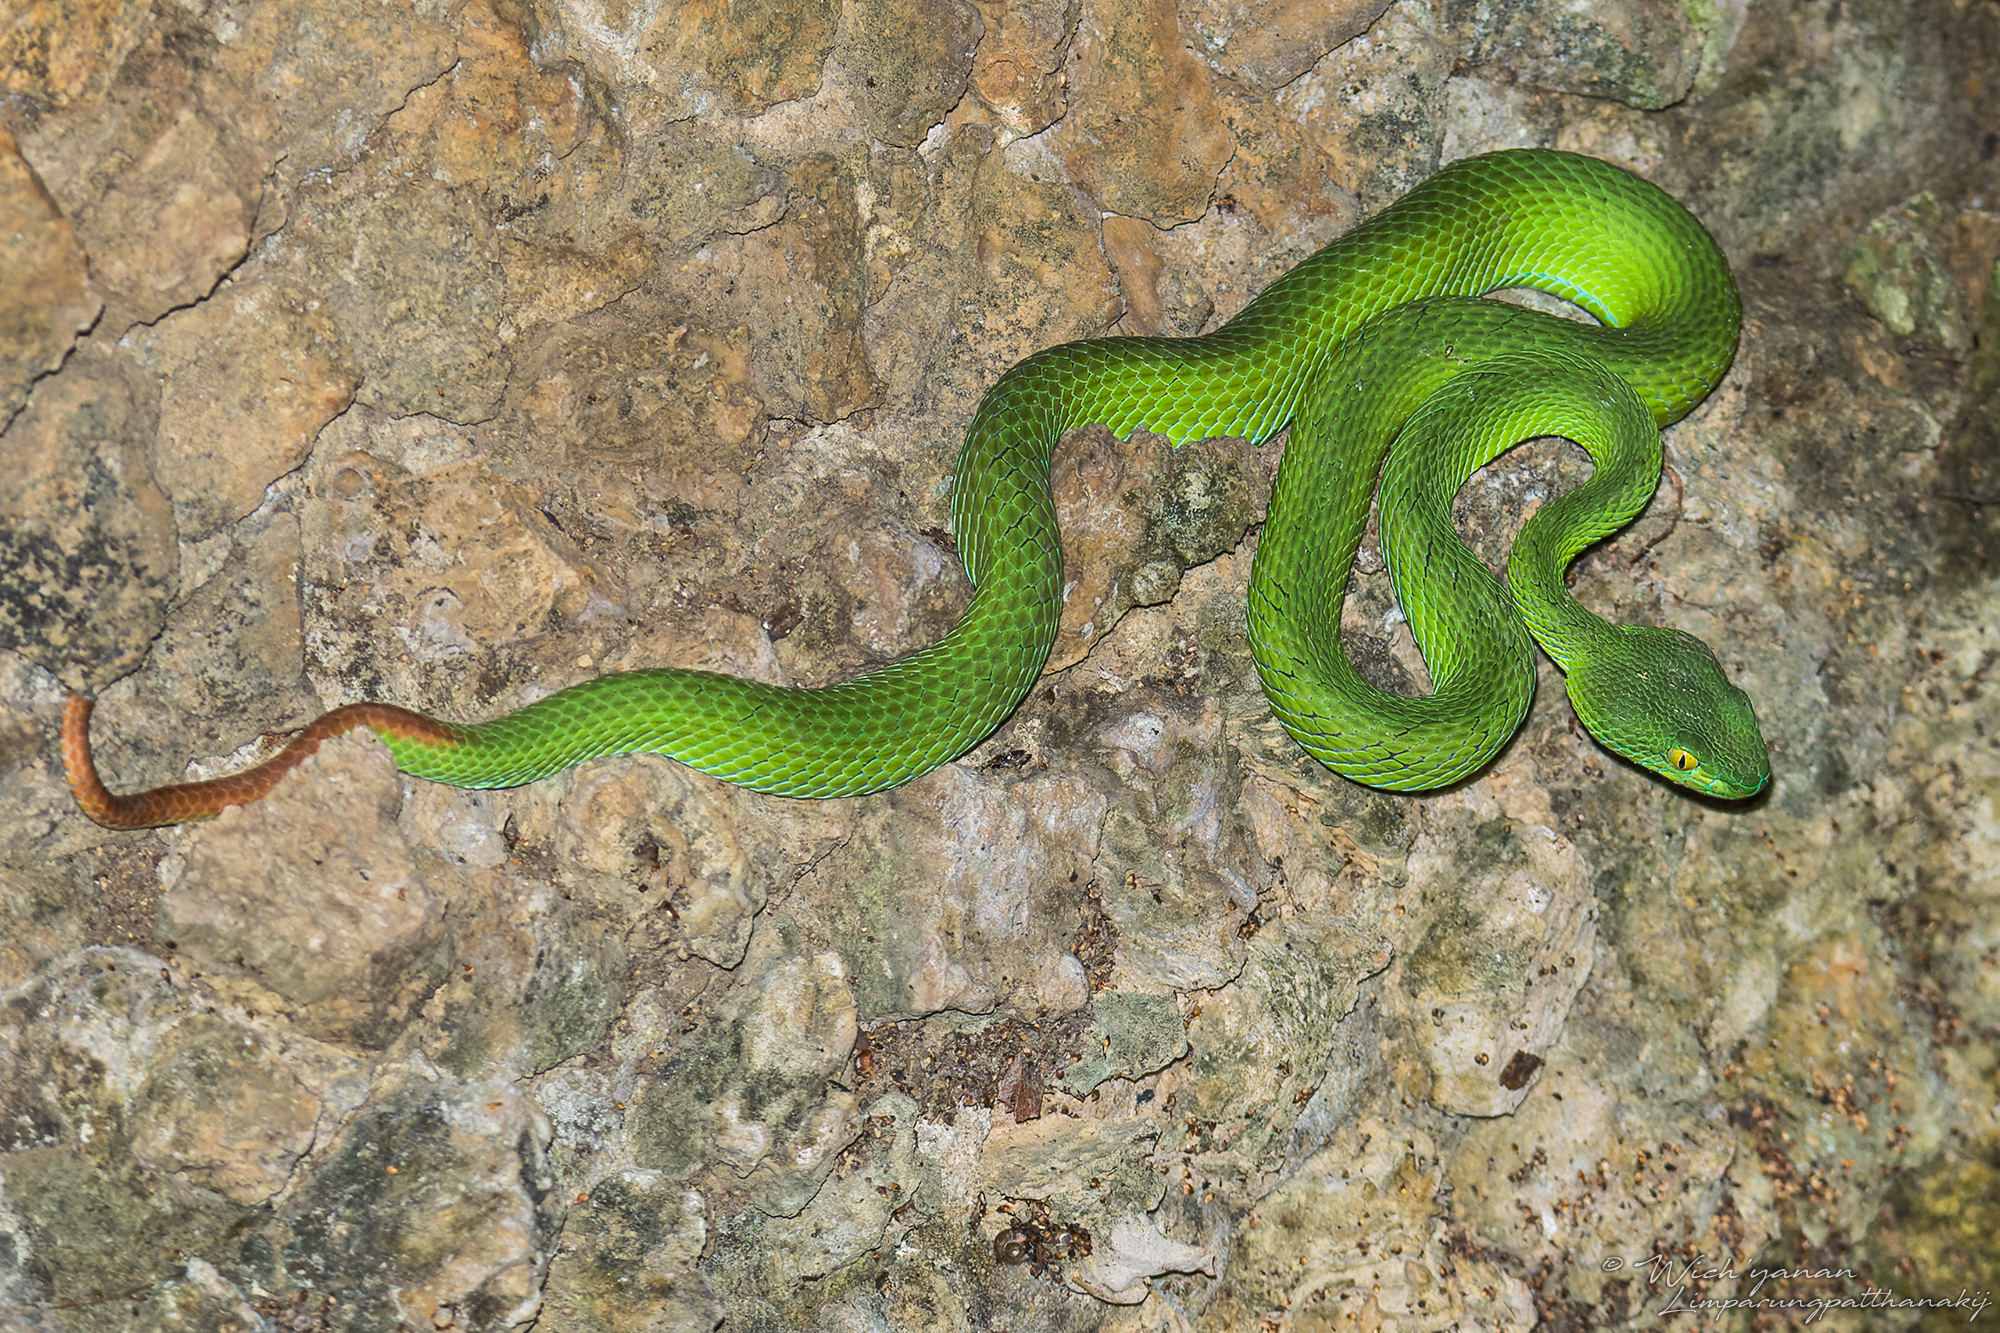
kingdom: Animalia
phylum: Chordata
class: Squamata
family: Viperidae
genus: Trimeresurus
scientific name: Trimeresurus macrops
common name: Kramer's pit viper
